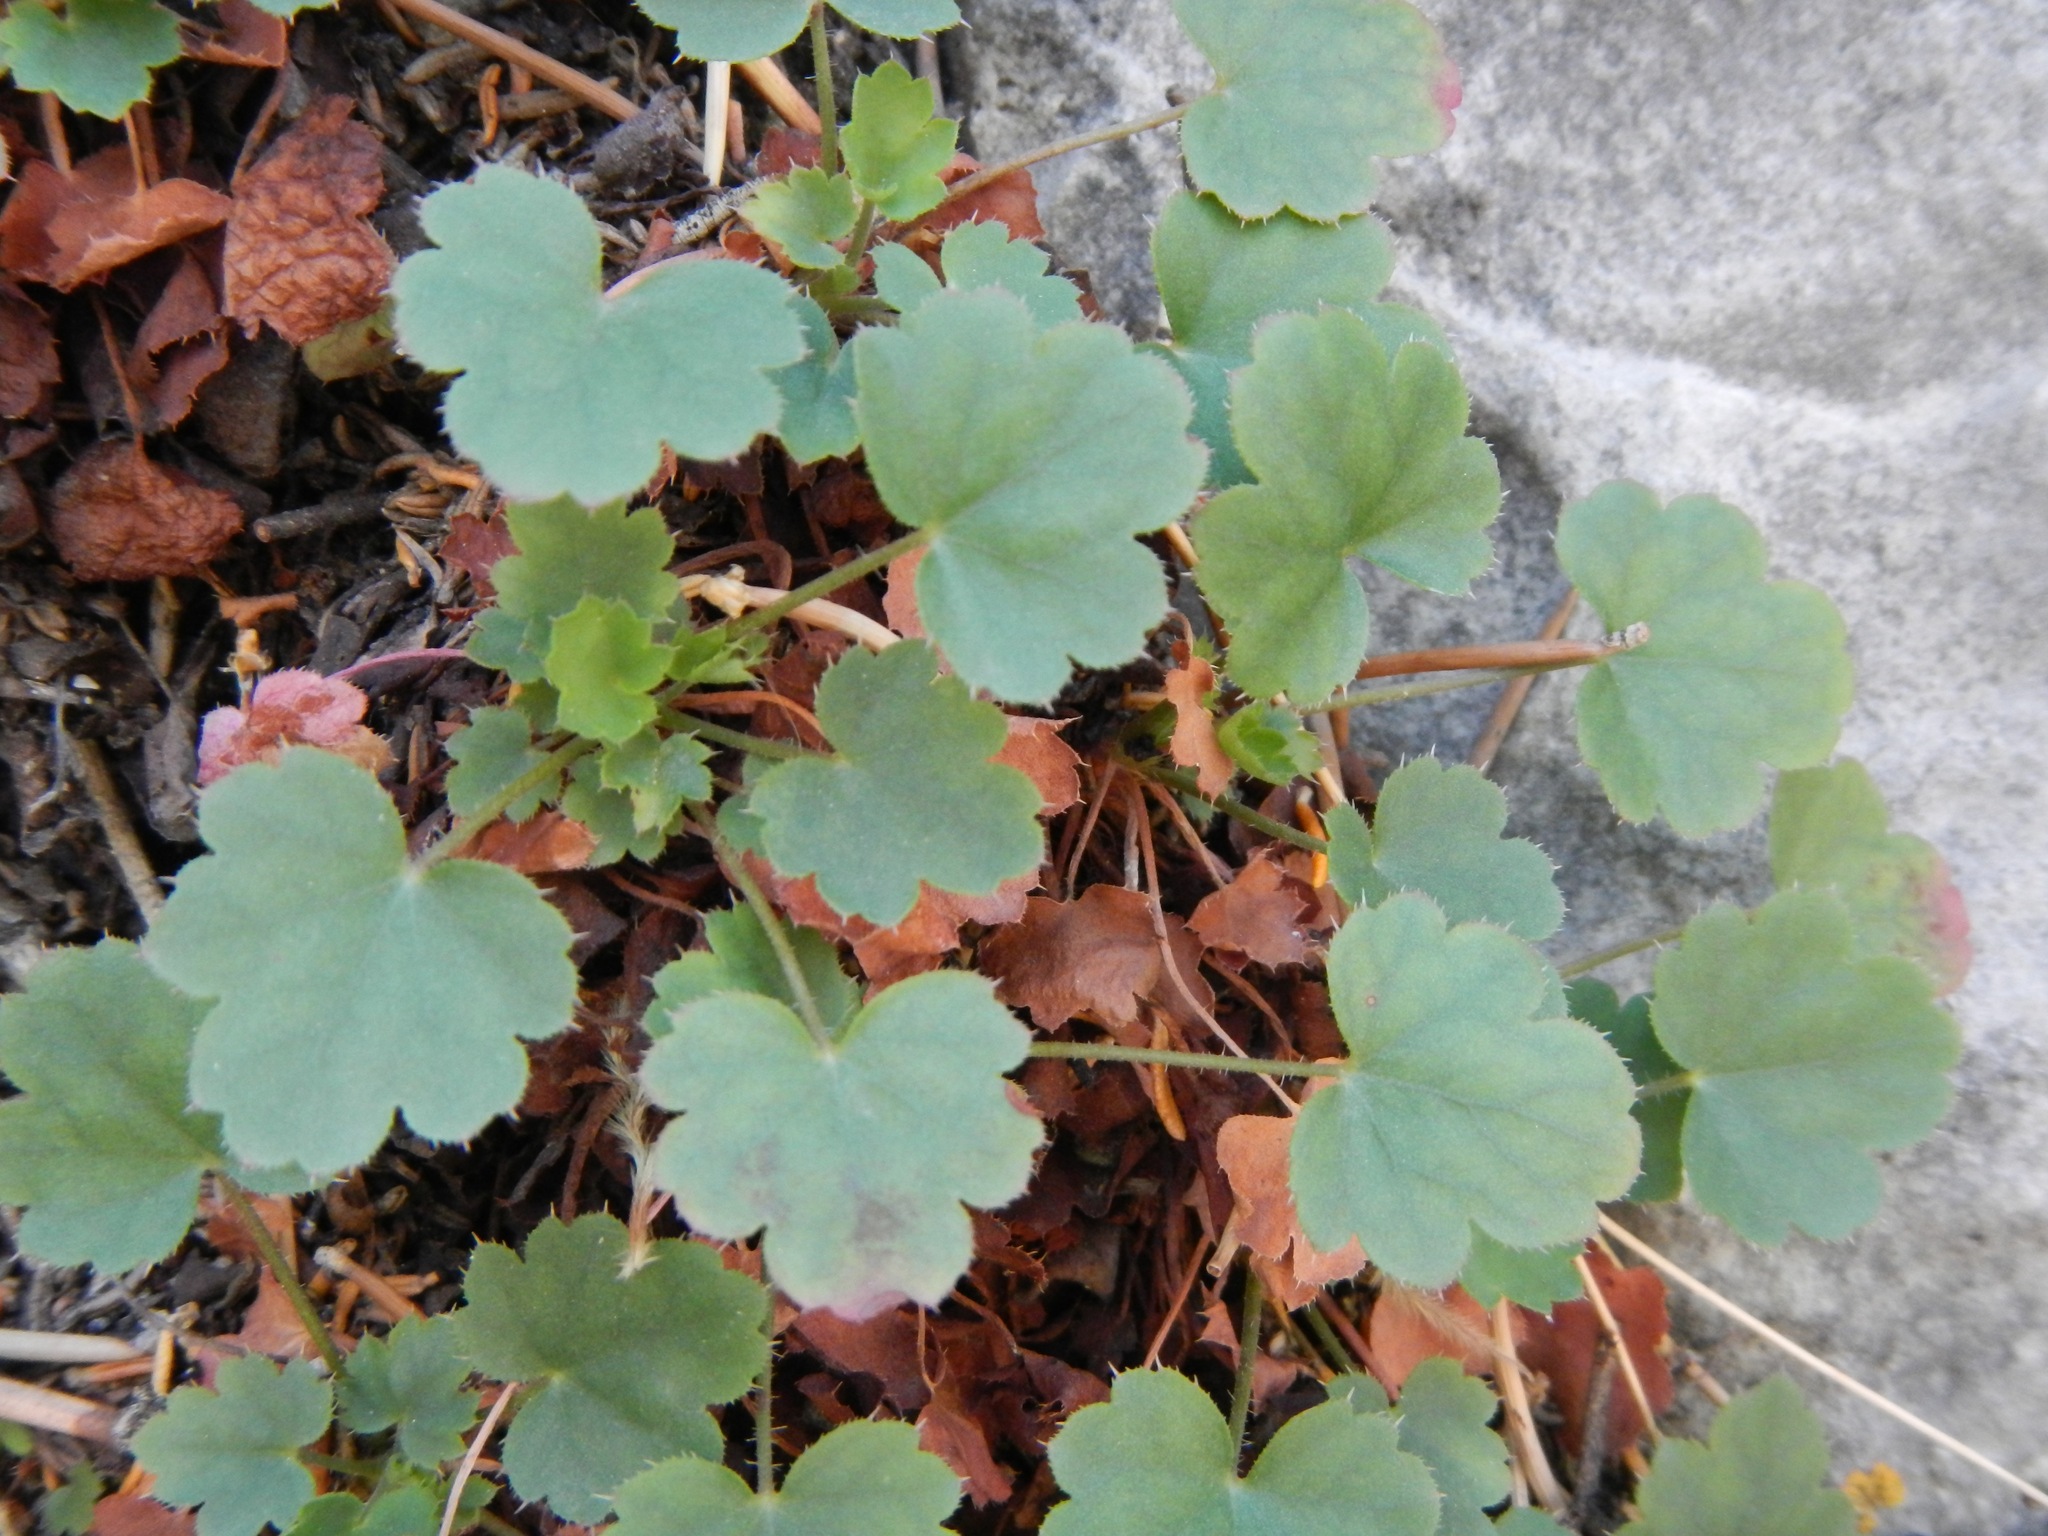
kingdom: Plantae
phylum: Tracheophyta
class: Magnoliopsida
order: Saxifragales
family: Saxifragaceae
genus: Heuchera
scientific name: Heuchera rubescens
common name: Jack-o'the-rocks
